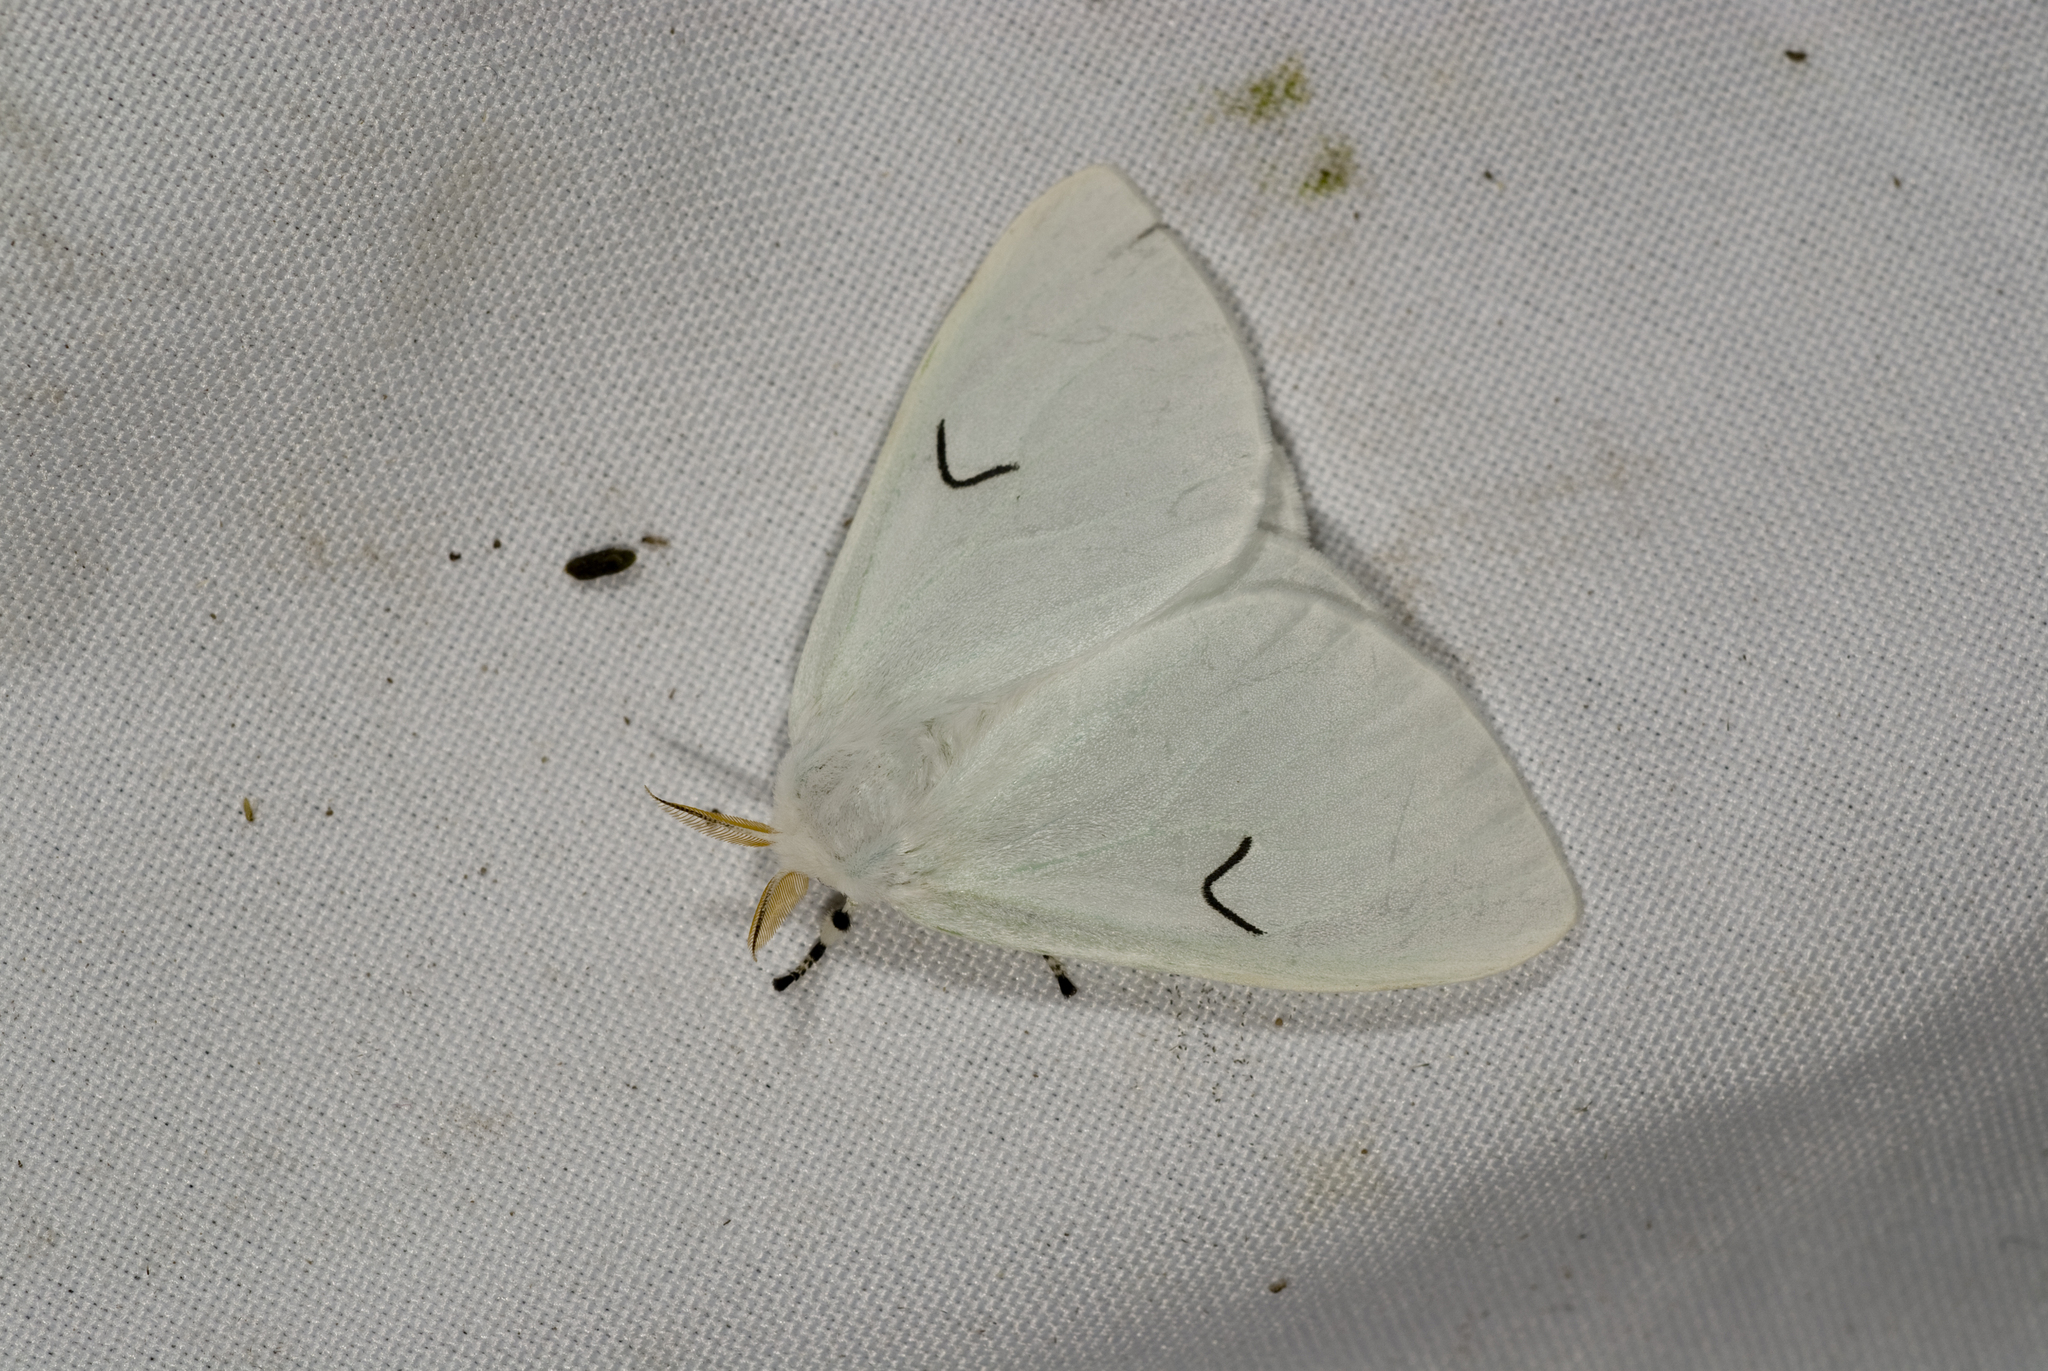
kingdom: Animalia
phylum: Arthropoda
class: Insecta
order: Lepidoptera
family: Erebidae
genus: Arctornis
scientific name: Arctornis l-nigrum
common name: Black v moth
